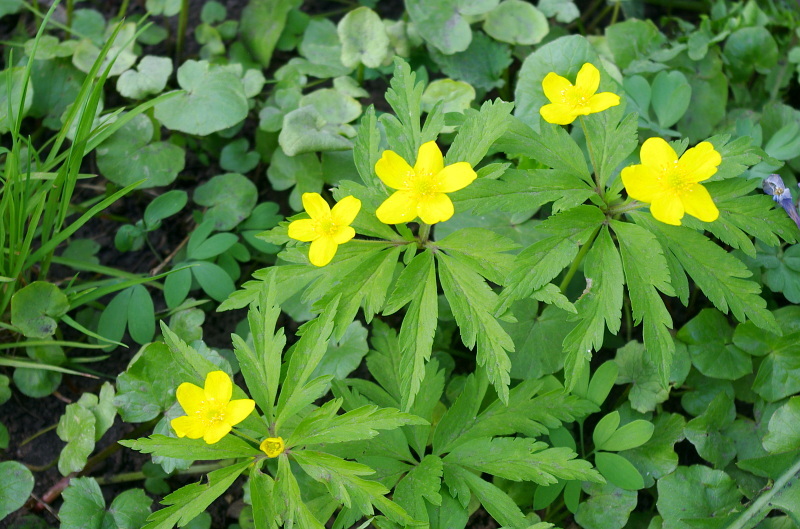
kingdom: Plantae
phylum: Tracheophyta
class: Magnoliopsida
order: Ranunculales
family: Ranunculaceae
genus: Anemone
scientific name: Anemone ranunculoides
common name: Yellow anemone
